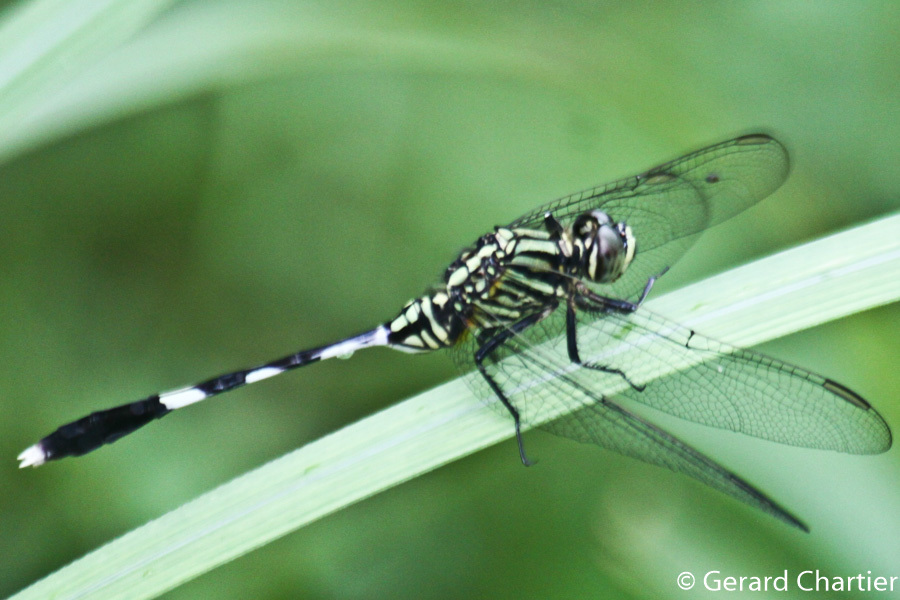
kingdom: Animalia
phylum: Arthropoda
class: Insecta
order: Odonata
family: Libellulidae
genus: Orthetrum
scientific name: Orthetrum sabina
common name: Slender skimmer
